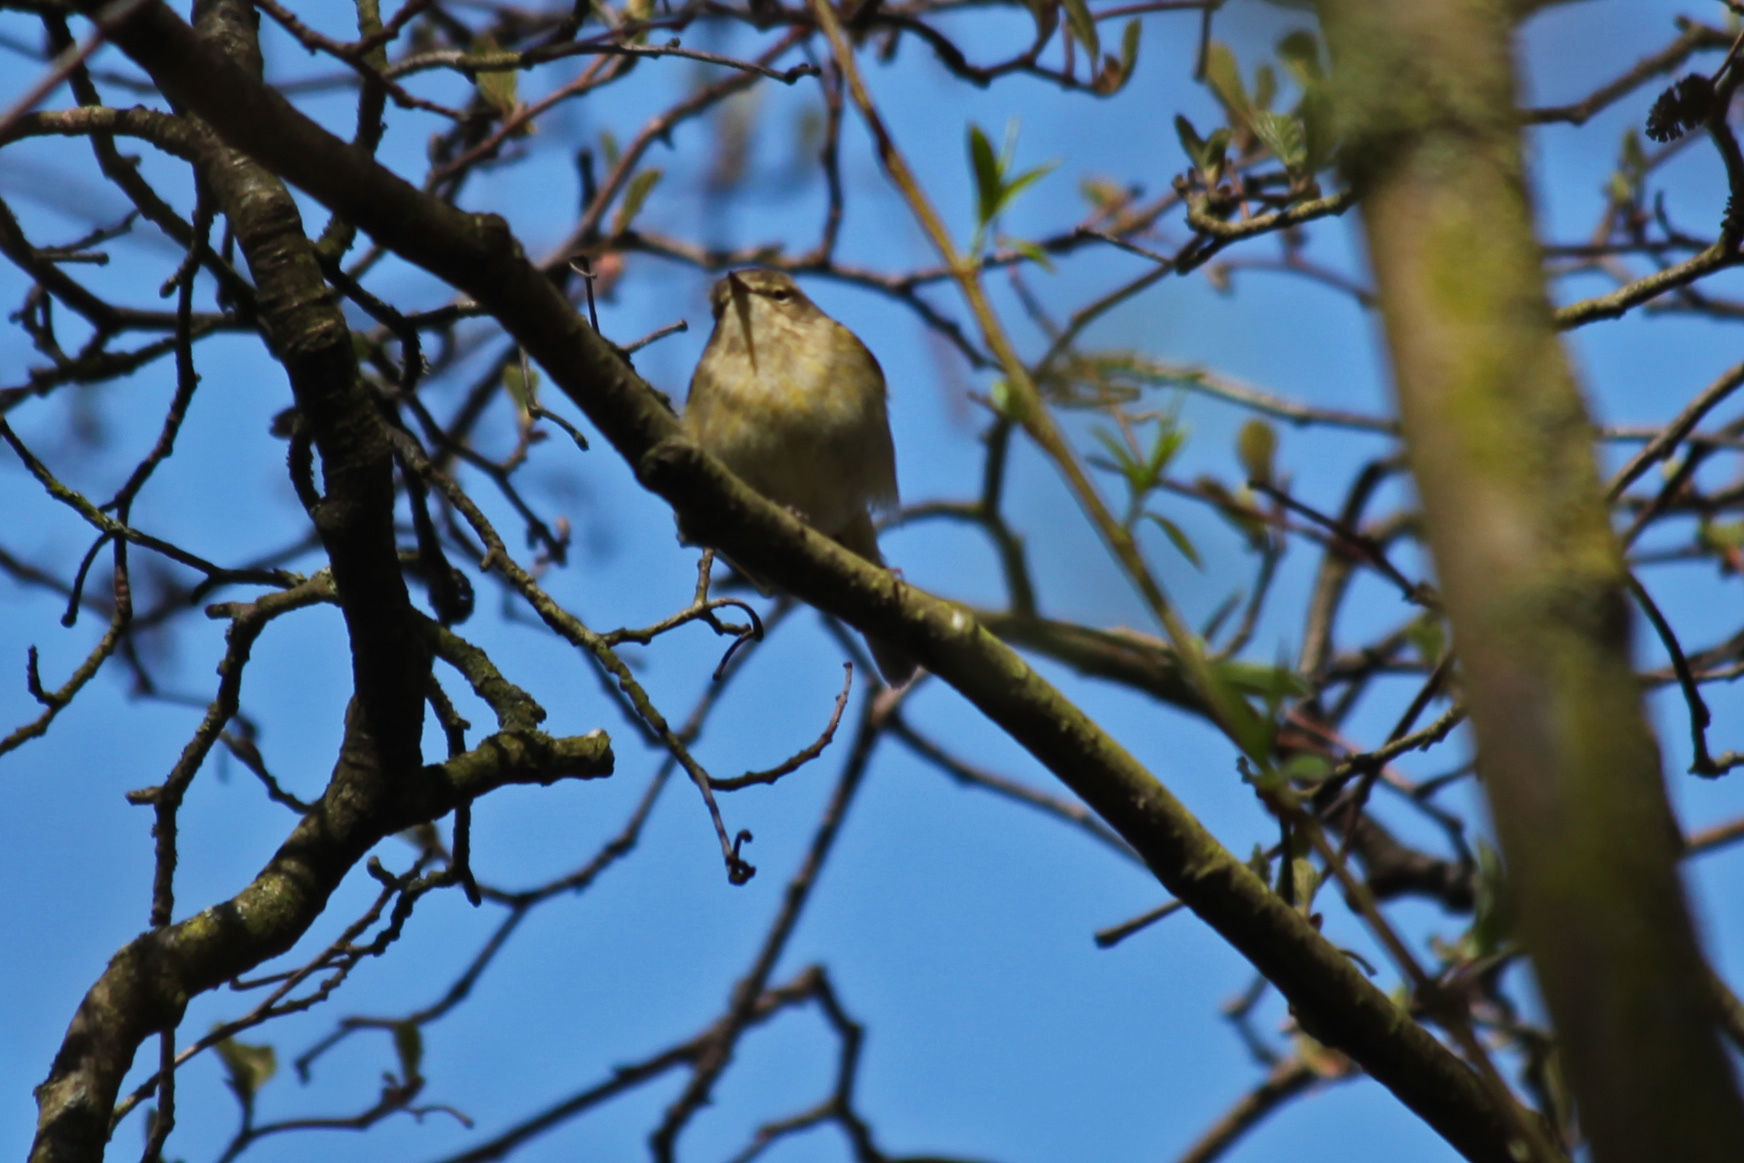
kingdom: Animalia
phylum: Chordata
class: Aves
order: Passeriformes
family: Phylloscopidae
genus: Phylloscopus
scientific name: Phylloscopus collybita
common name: Common chiffchaff
